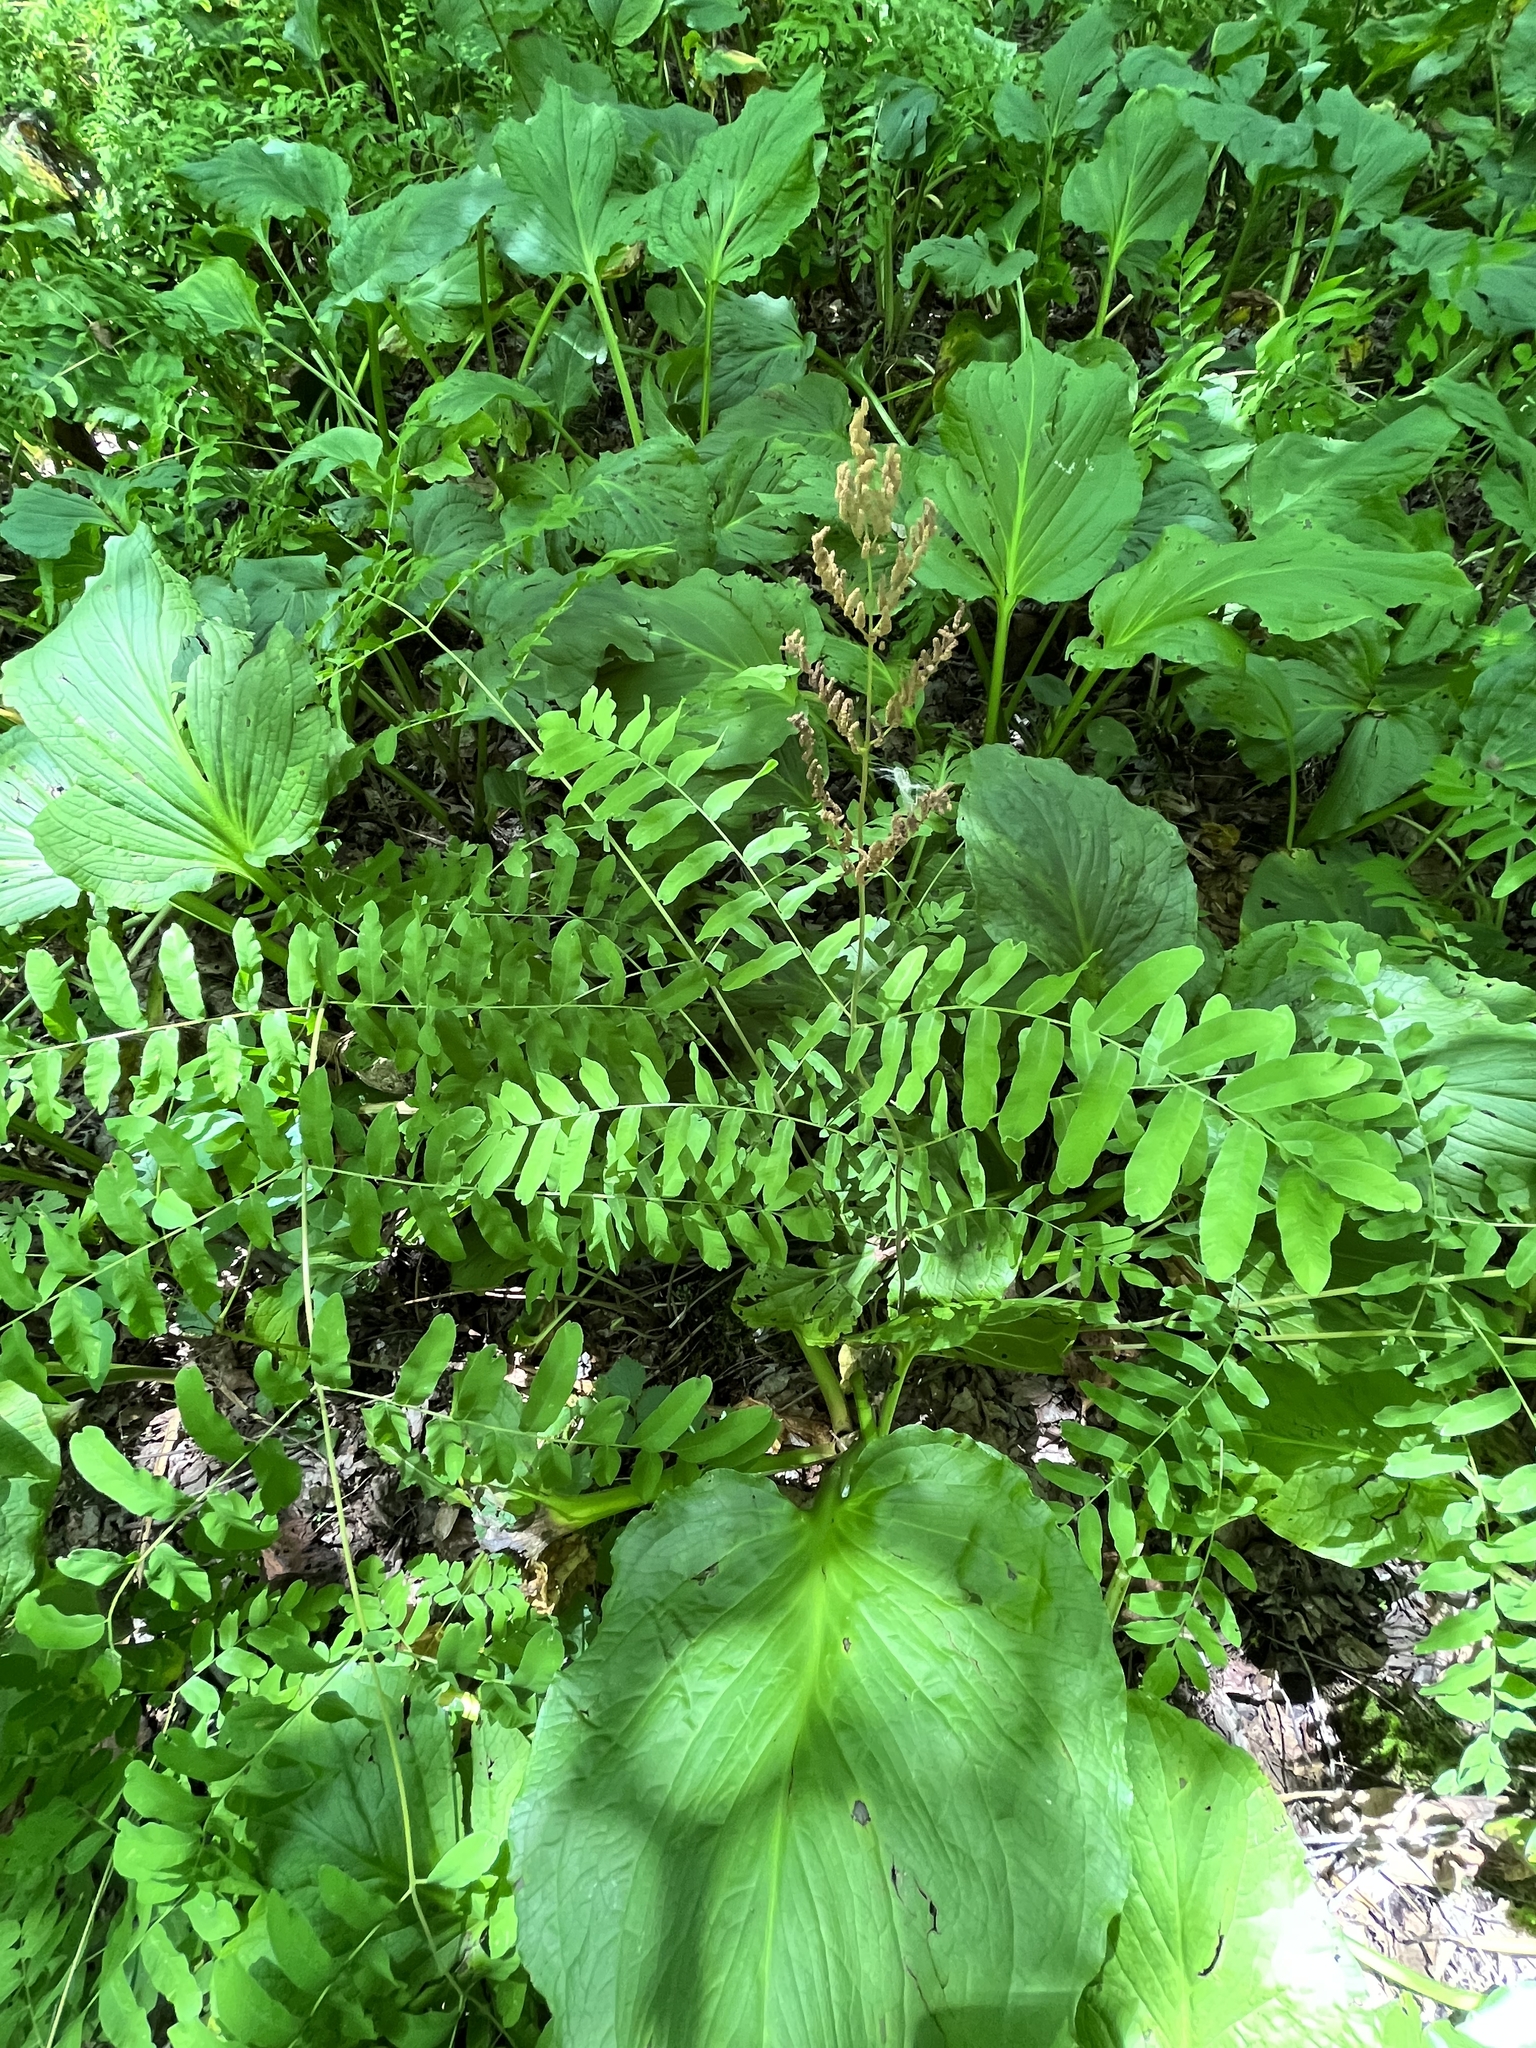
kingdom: Plantae
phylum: Tracheophyta
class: Polypodiopsida
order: Osmundales
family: Osmundaceae
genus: Osmunda
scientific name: Osmunda spectabilis
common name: American royal fern
